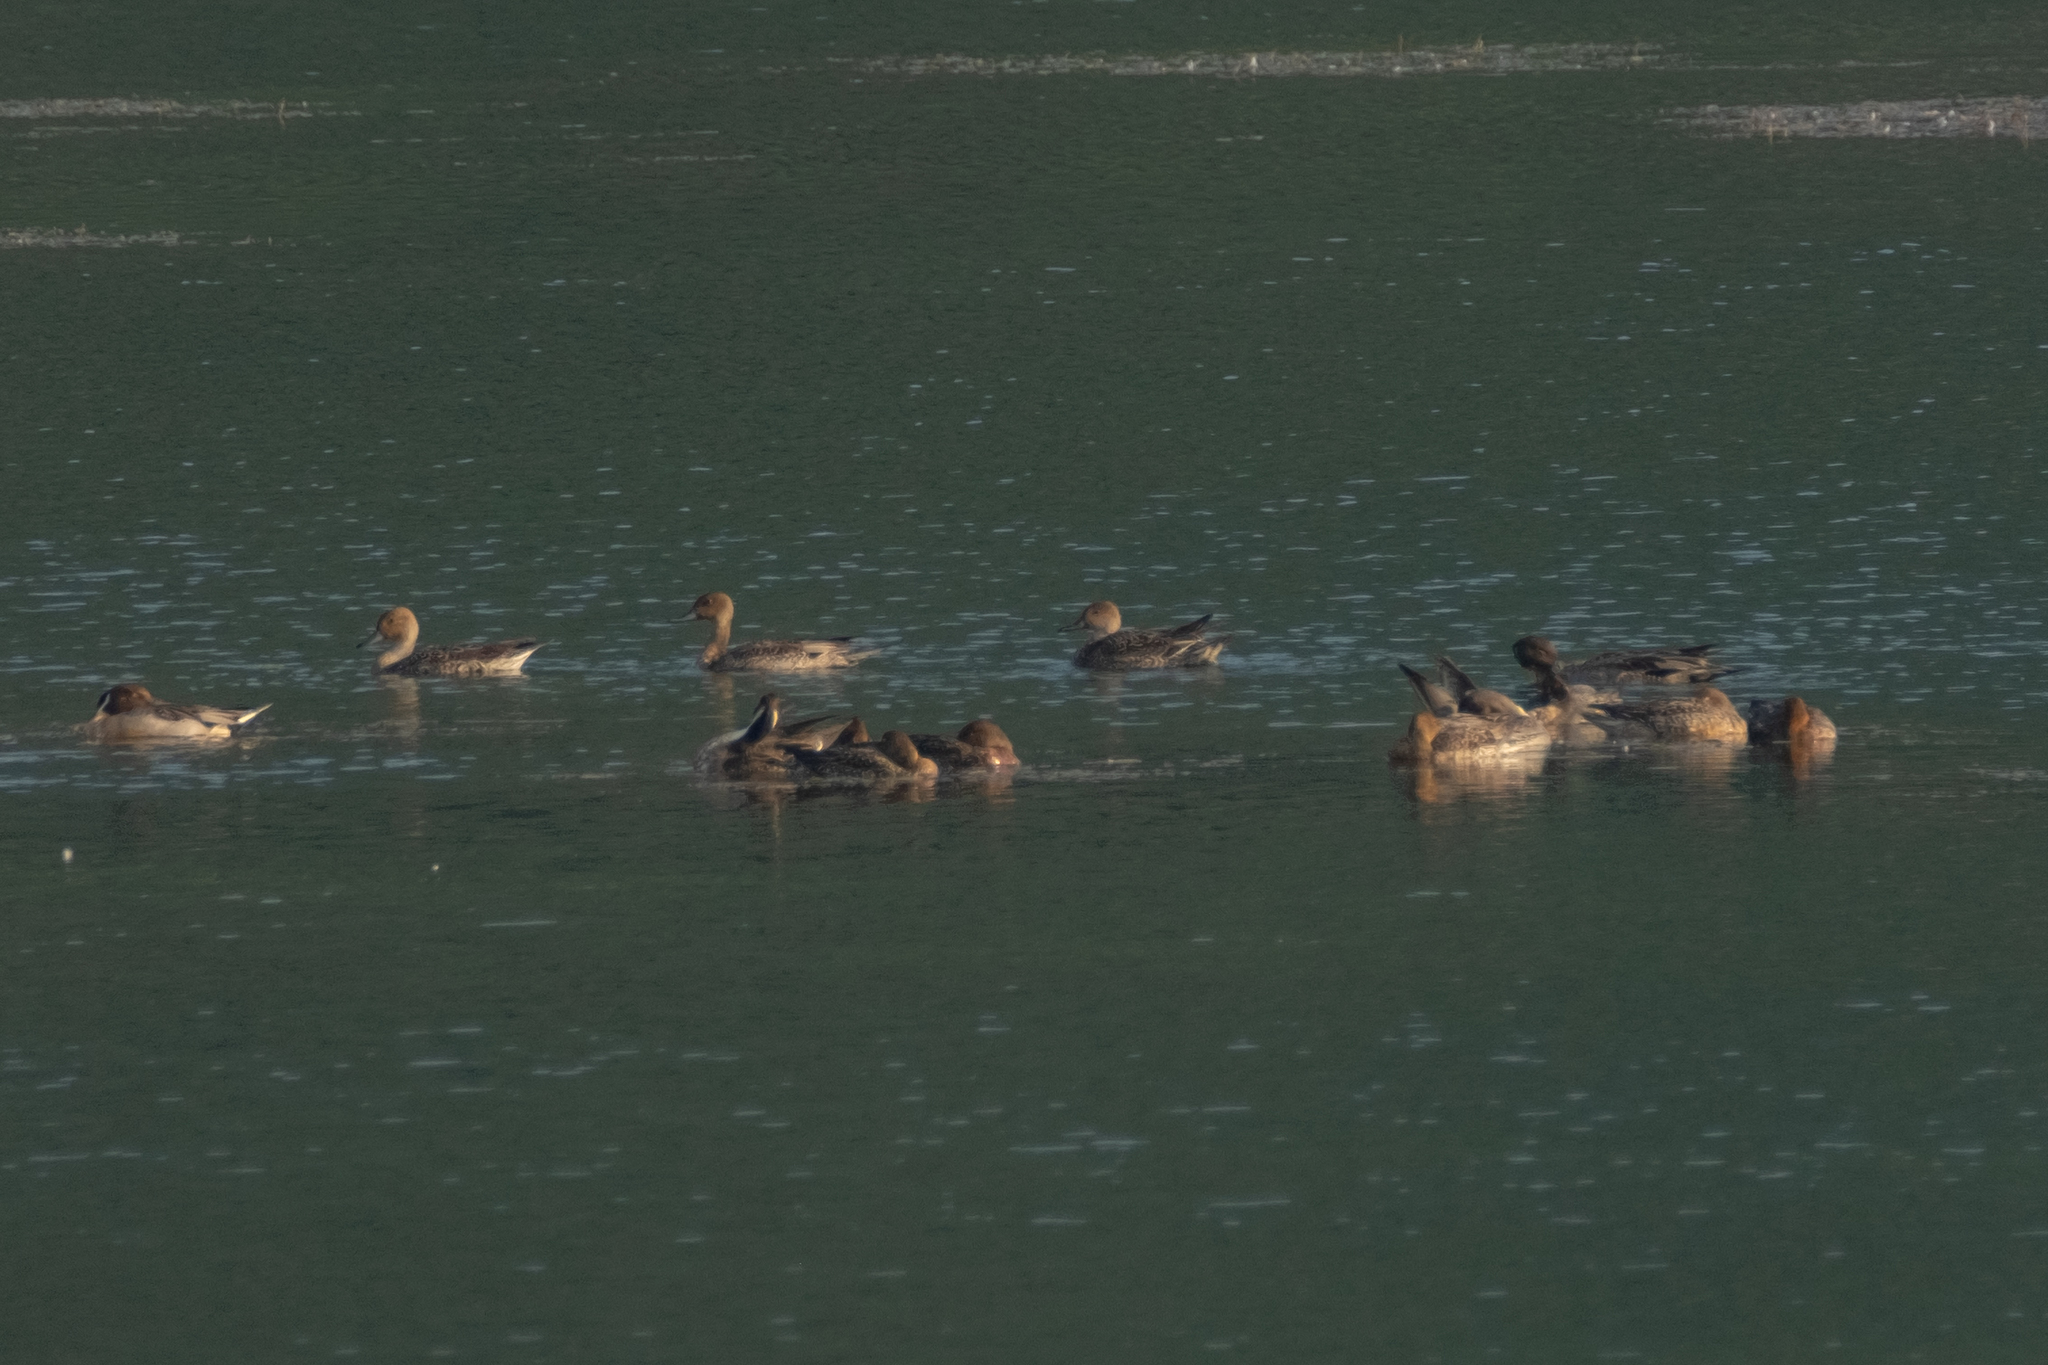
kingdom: Animalia
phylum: Chordata
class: Aves
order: Anseriformes
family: Anatidae
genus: Anas
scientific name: Anas acuta
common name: Northern pintail
